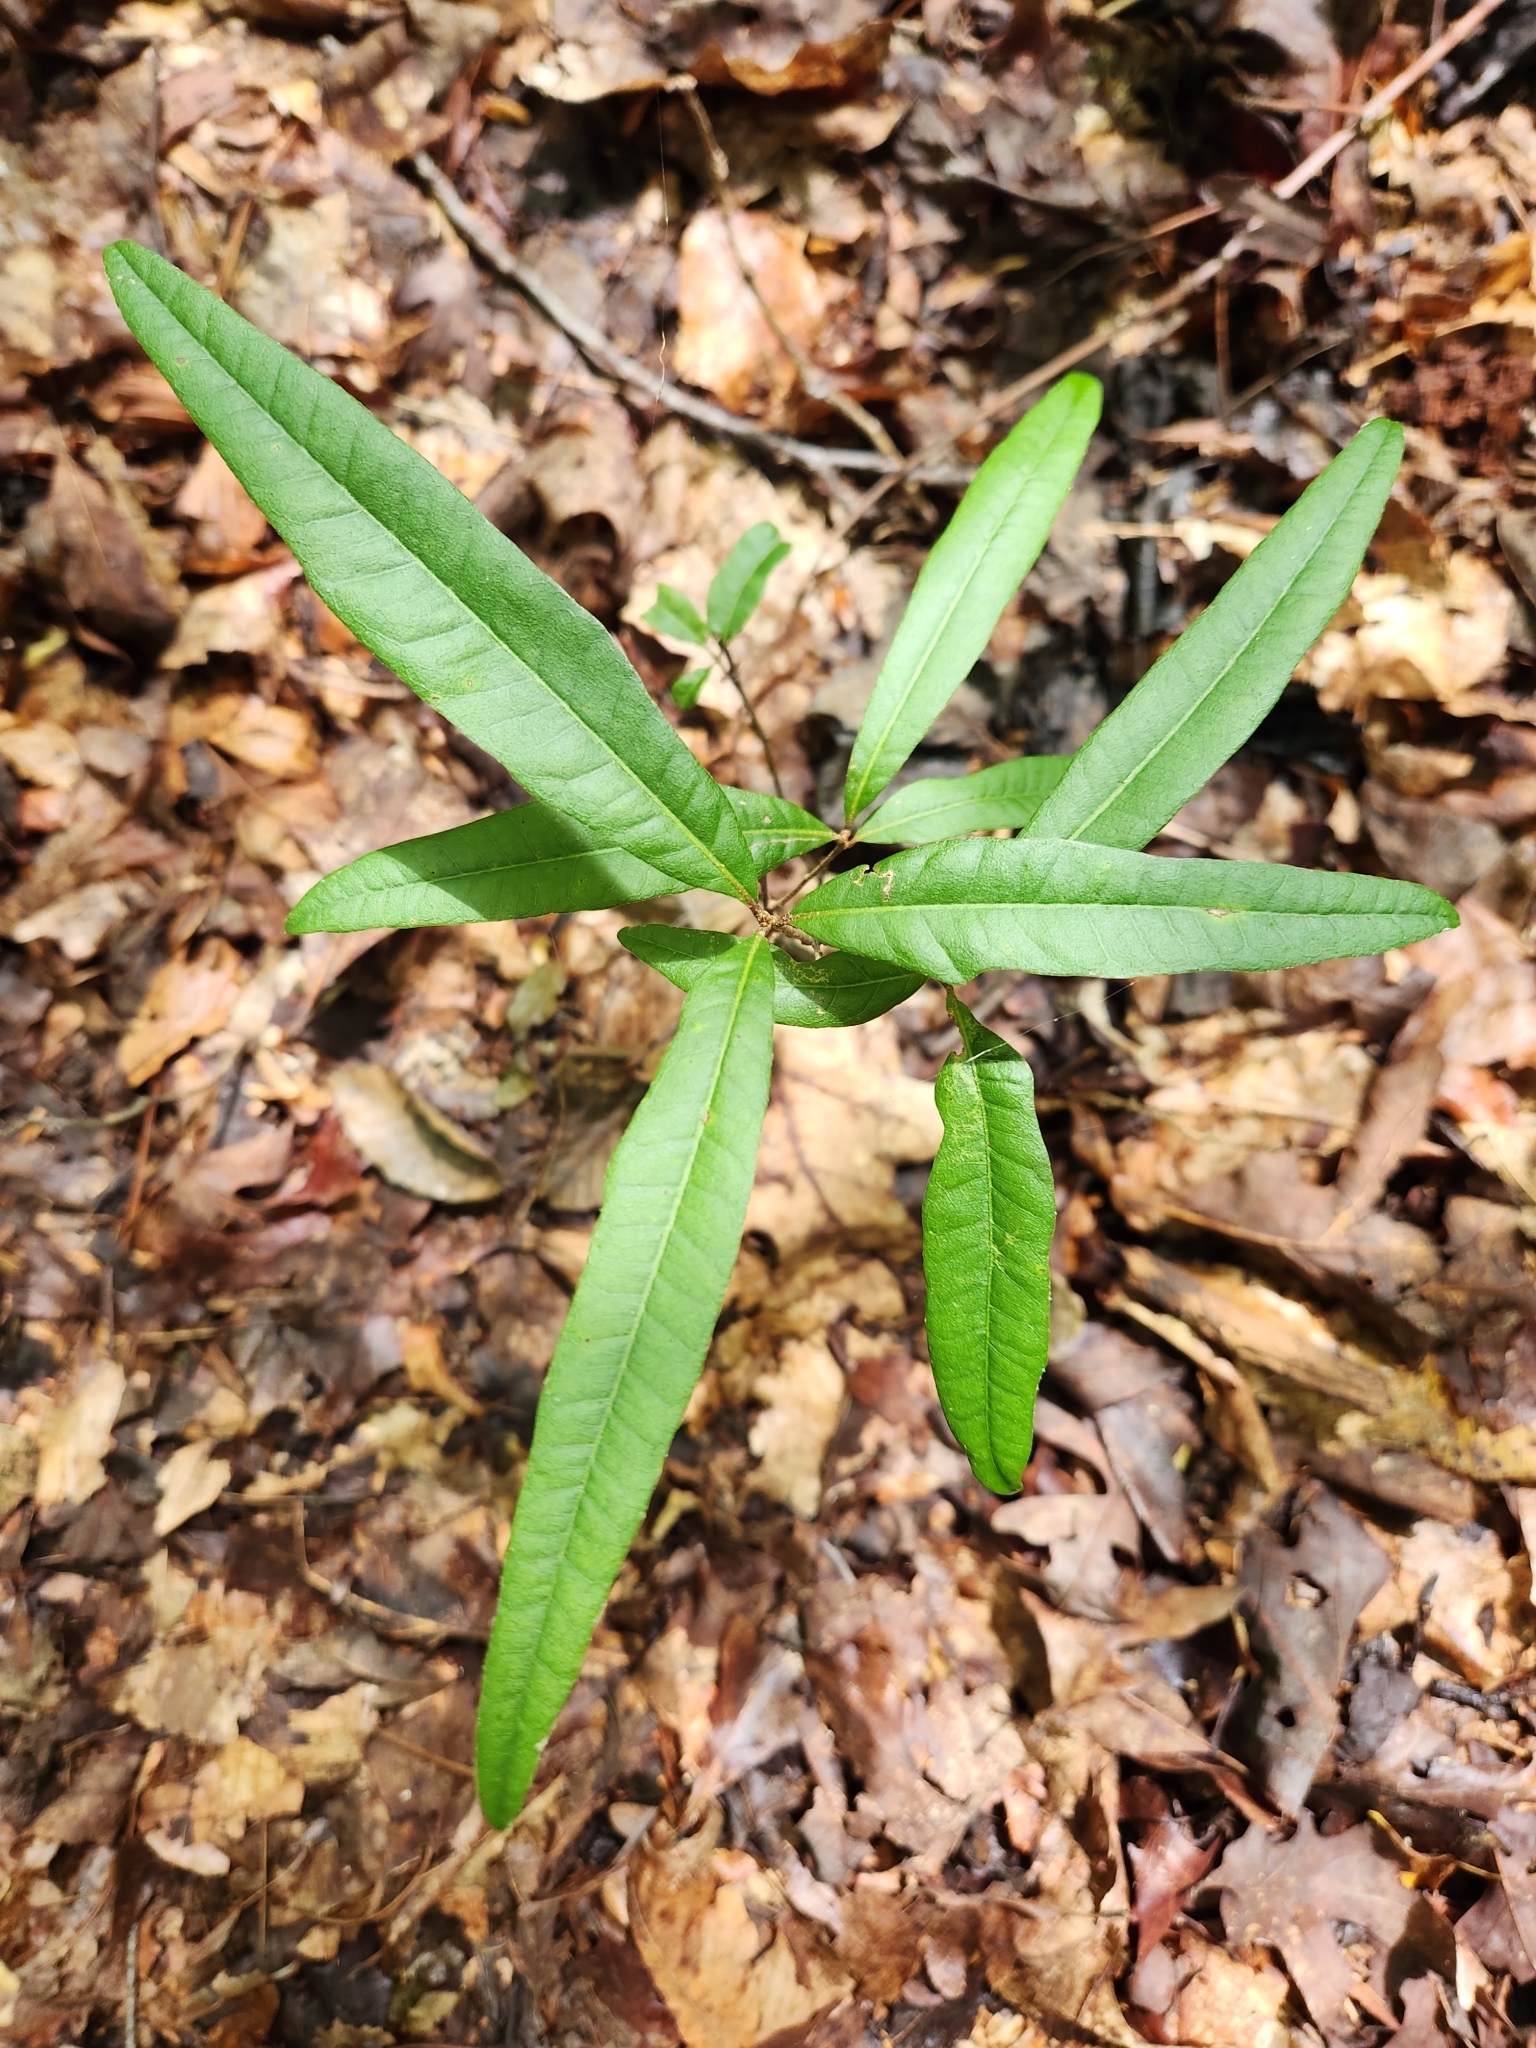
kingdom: Plantae
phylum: Tracheophyta
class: Magnoliopsida
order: Fagales
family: Fagaceae
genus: Quercus
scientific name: Quercus phellos
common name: Willow oak
